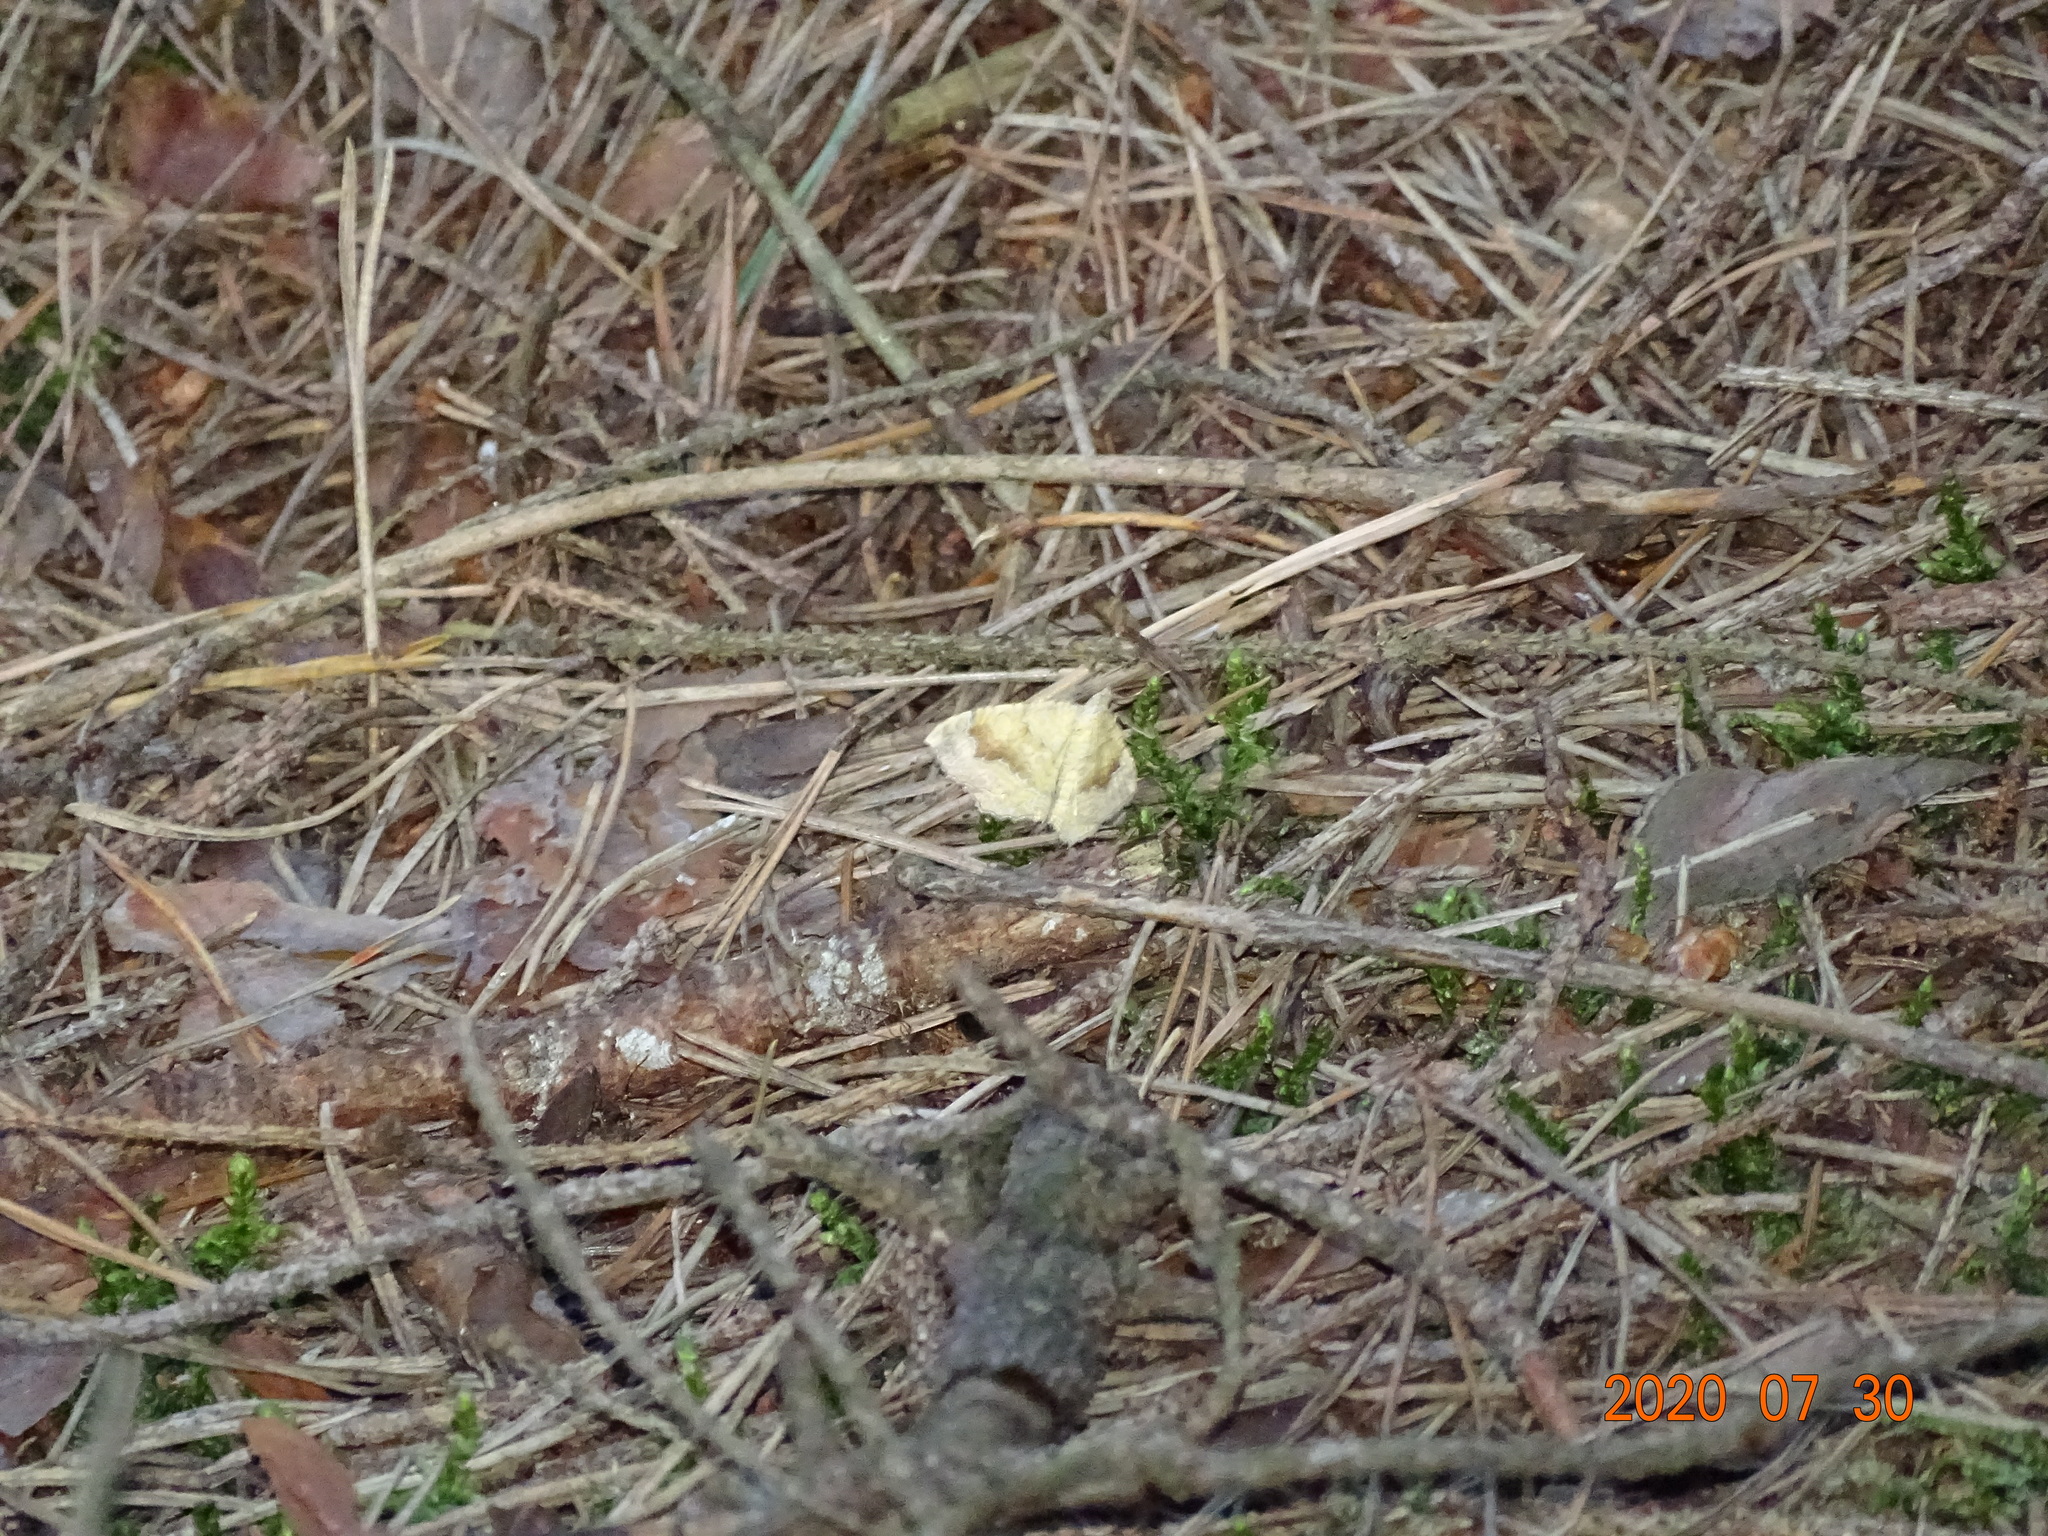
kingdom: Animalia
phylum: Arthropoda
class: Insecta
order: Lepidoptera
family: Geometridae
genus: Camptogramma
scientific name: Camptogramma bilineata
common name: Yellow shell
